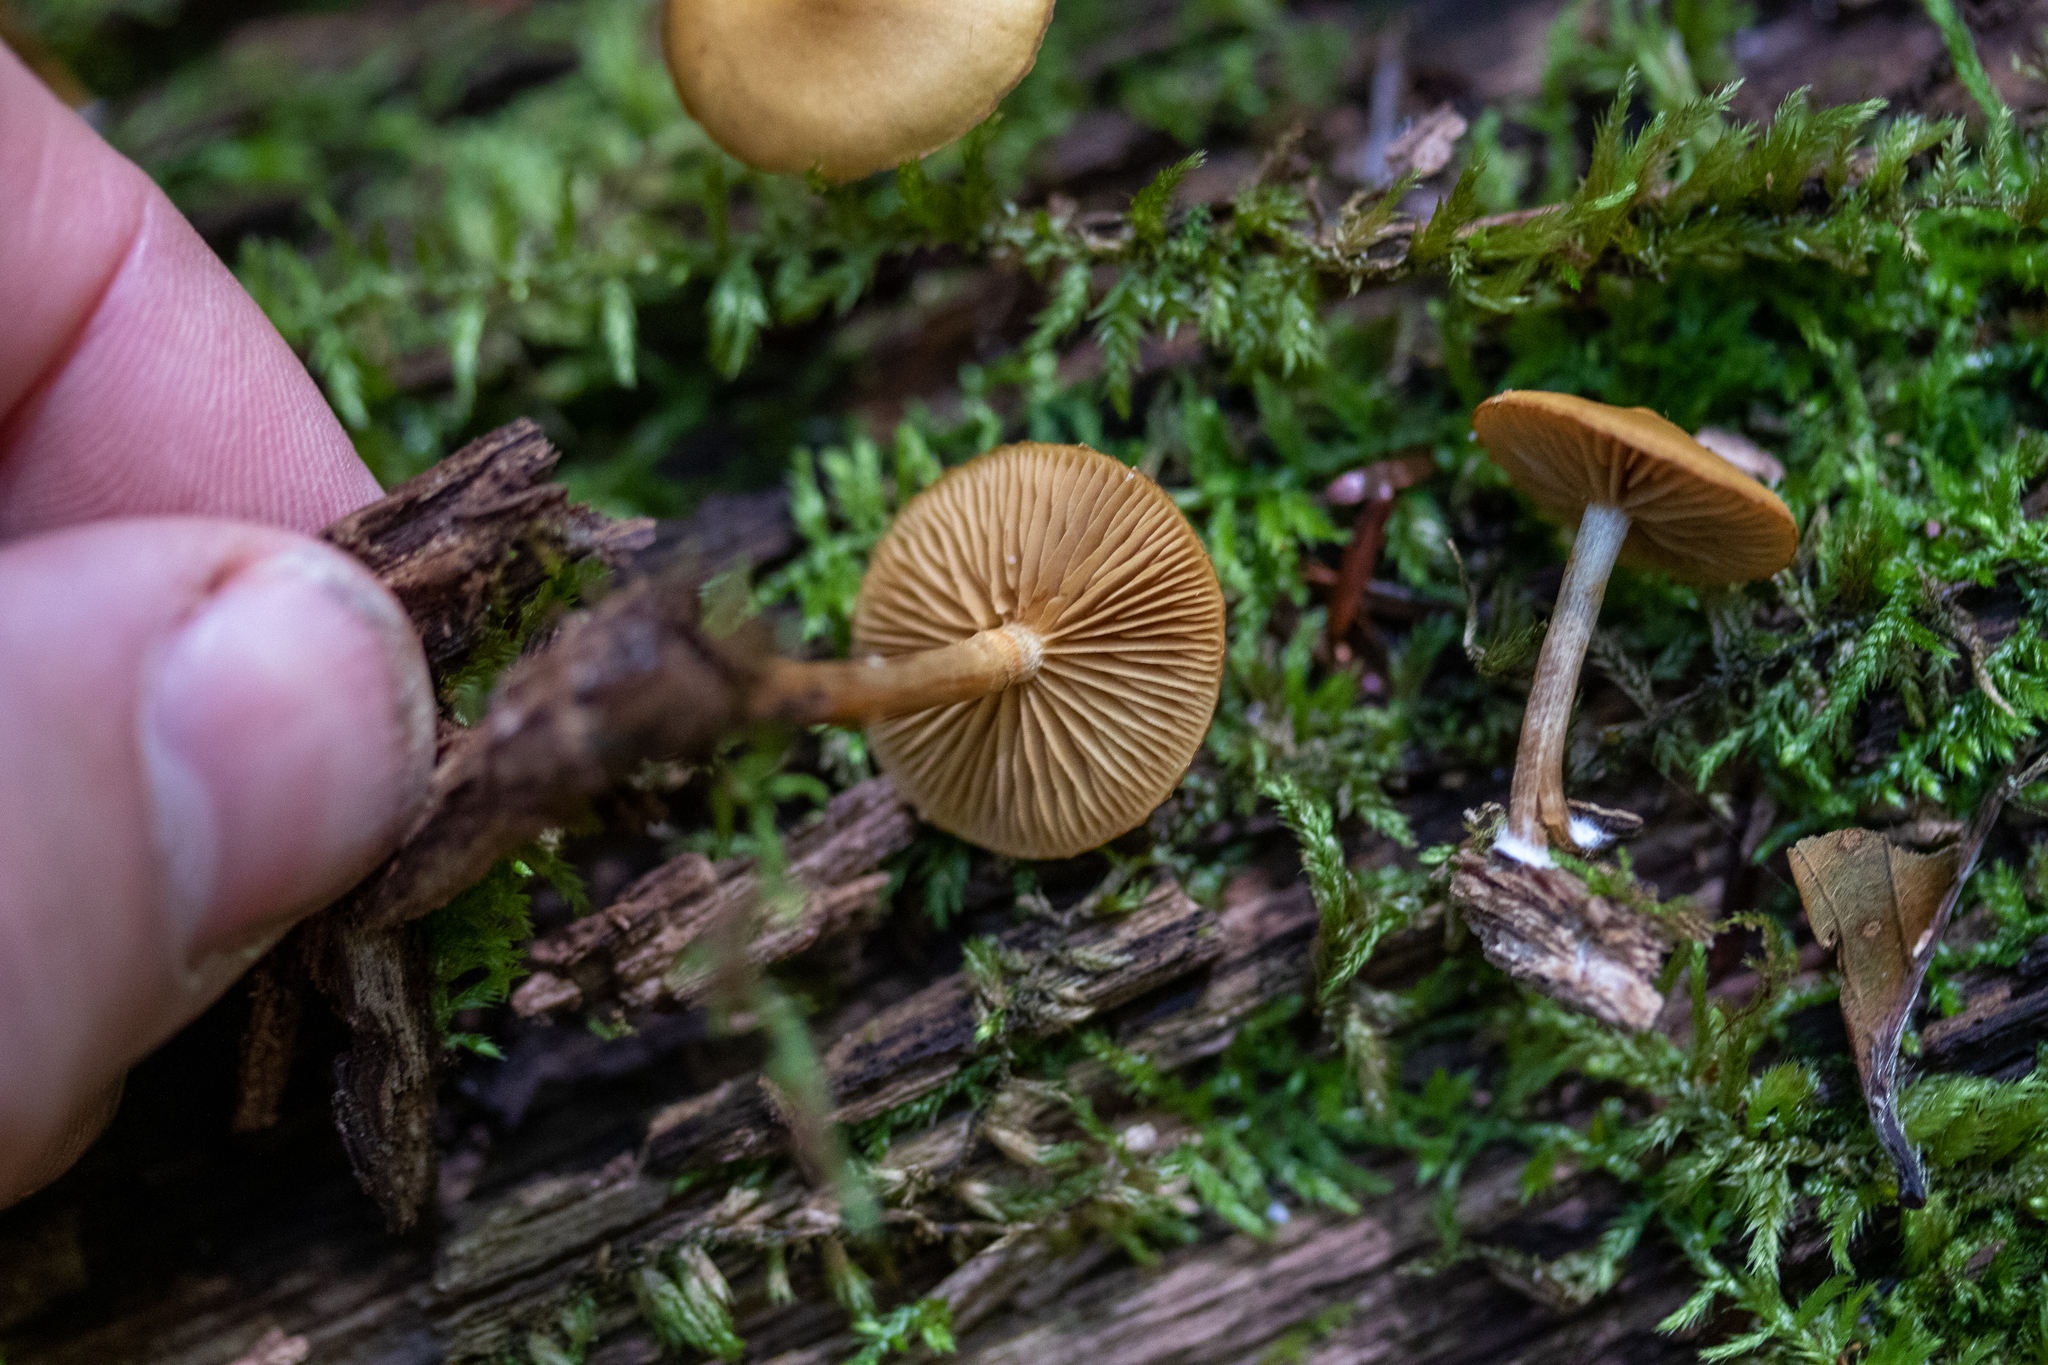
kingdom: Fungi
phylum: Basidiomycota
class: Agaricomycetes
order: Agaricales
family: Hymenogastraceae
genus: Galerina
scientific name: Galerina marginata
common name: Funeral bell
